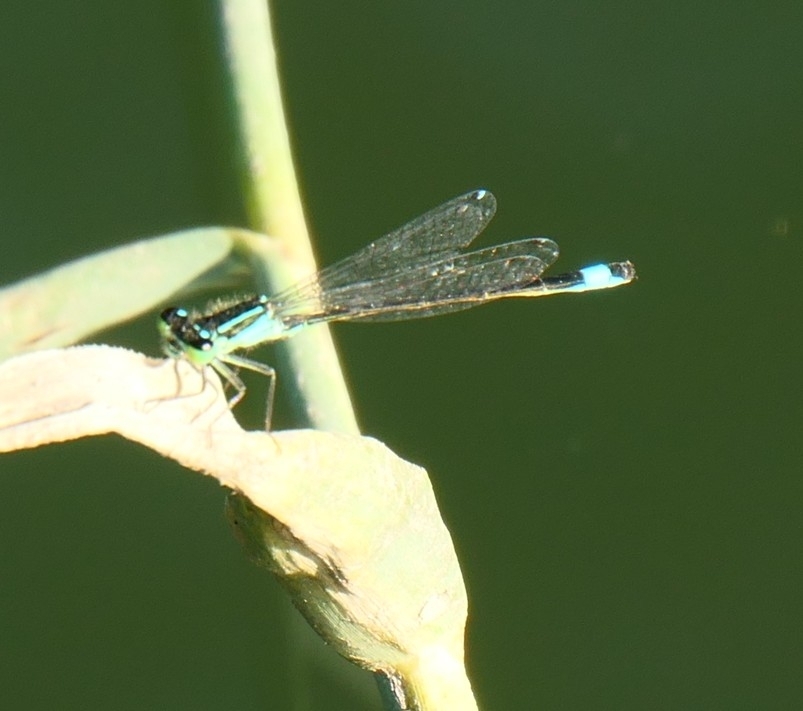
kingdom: Animalia
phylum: Arthropoda
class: Insecta
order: Odonata
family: Coenagrionidae
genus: Ischnura
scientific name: Ischnura elegans
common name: Blue-tailed damselfly
